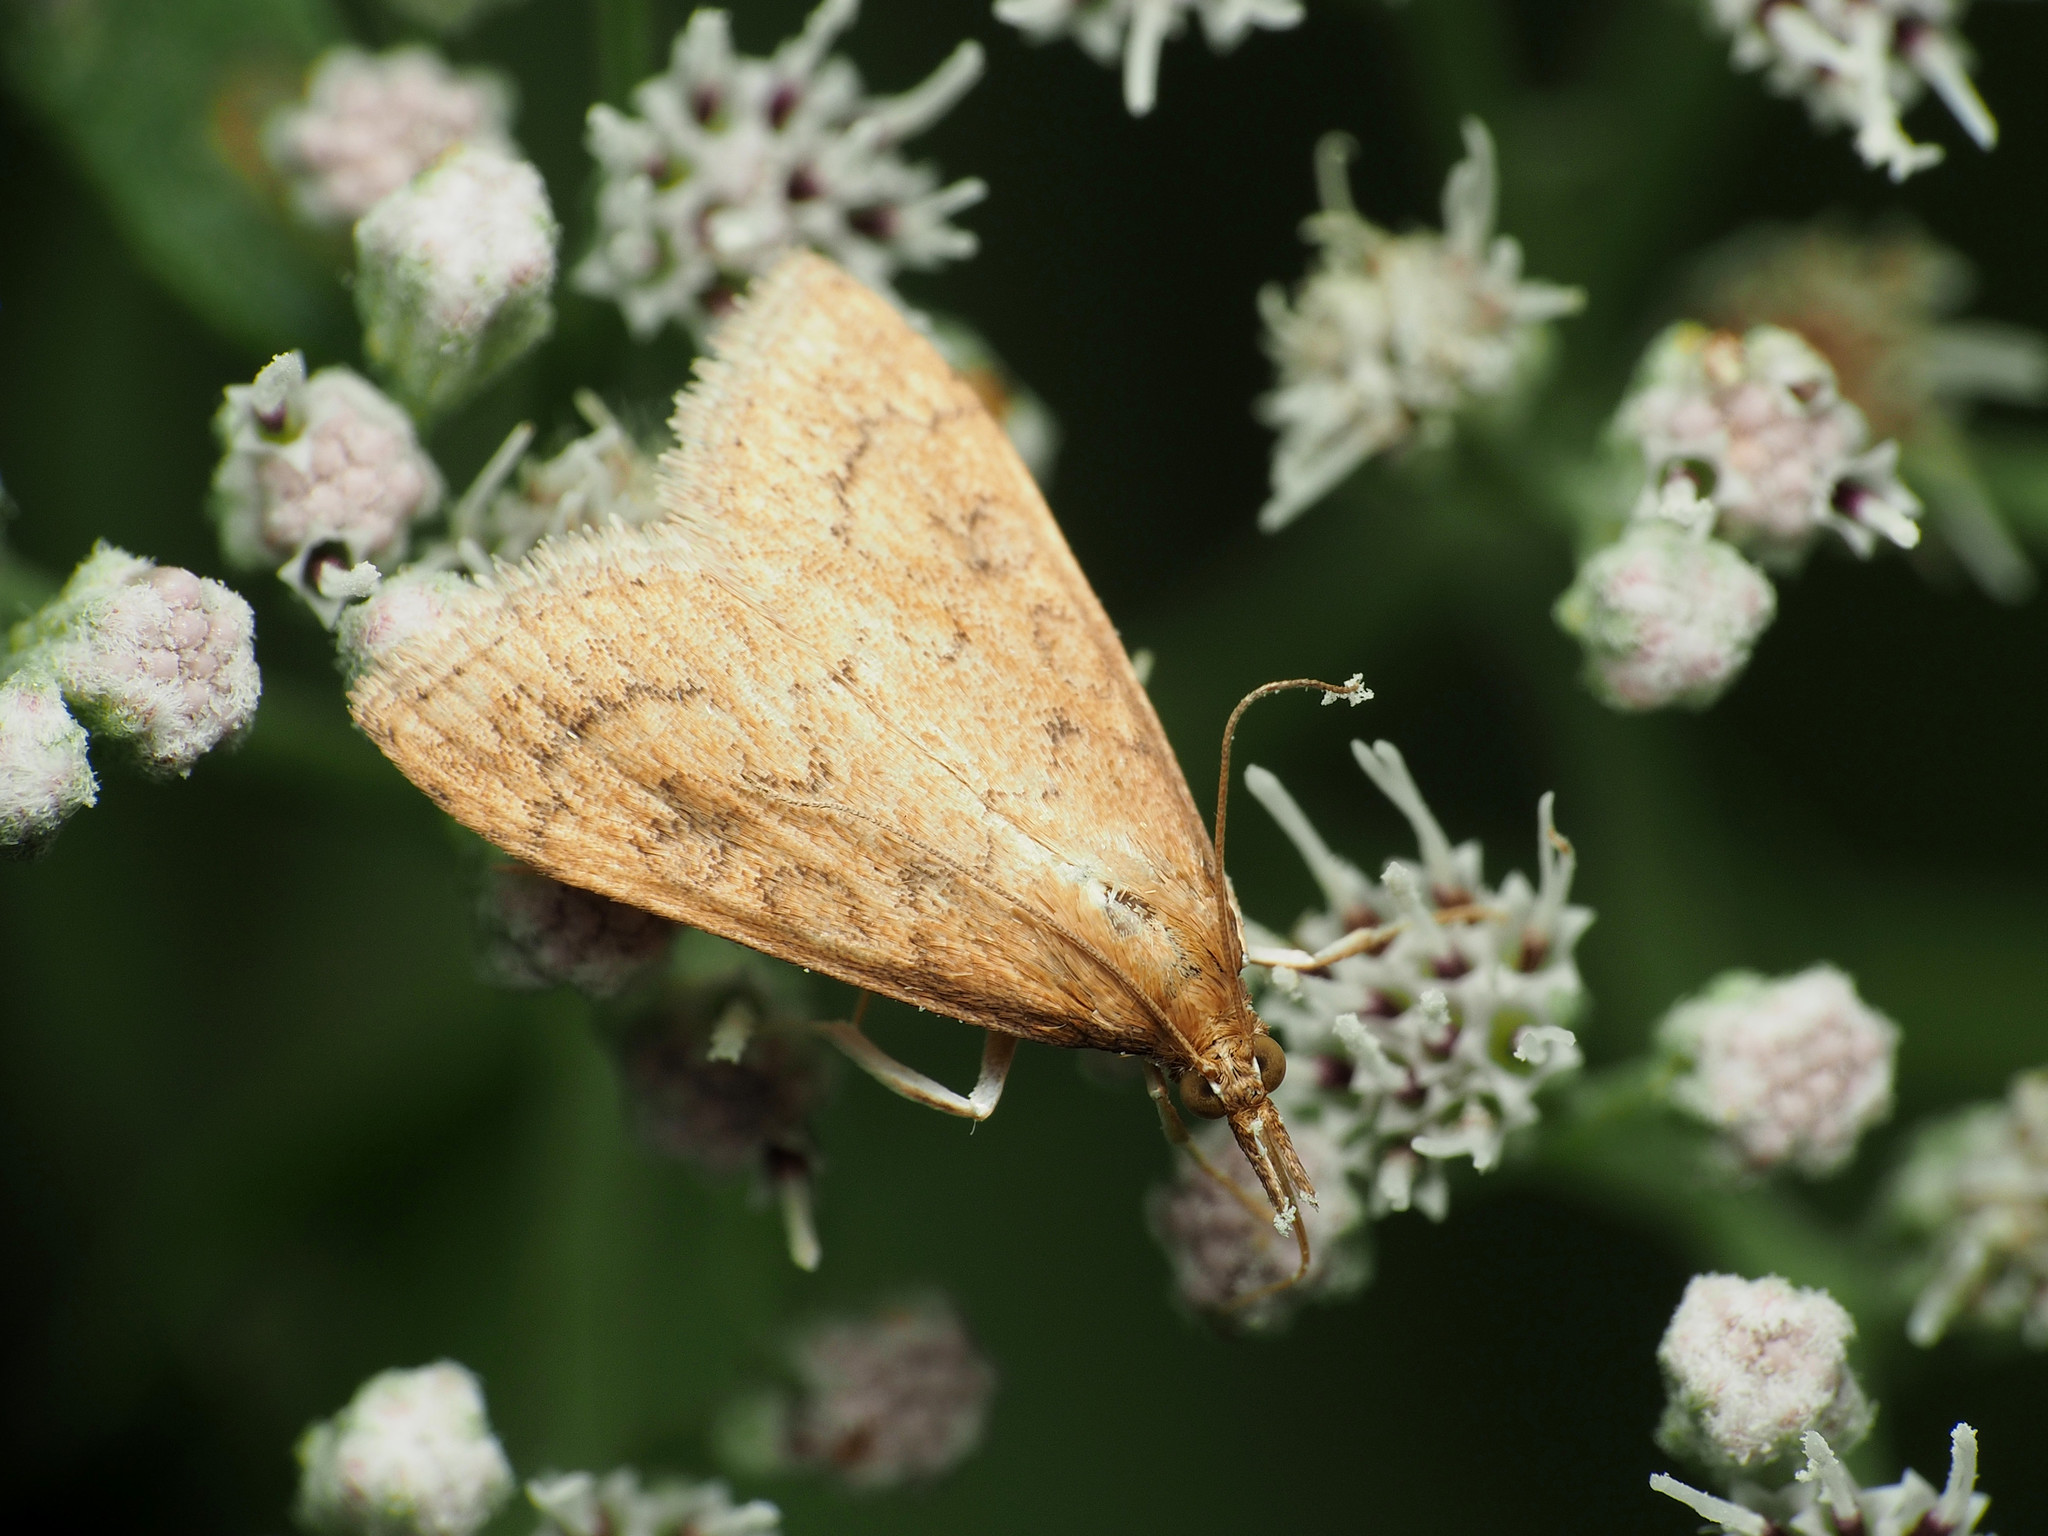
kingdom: Animalia
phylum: Arthropoda
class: Insecta
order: Lepidoptera
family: Crambidae
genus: Udea
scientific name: Udea rubigalis
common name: Celery leaftier moth
